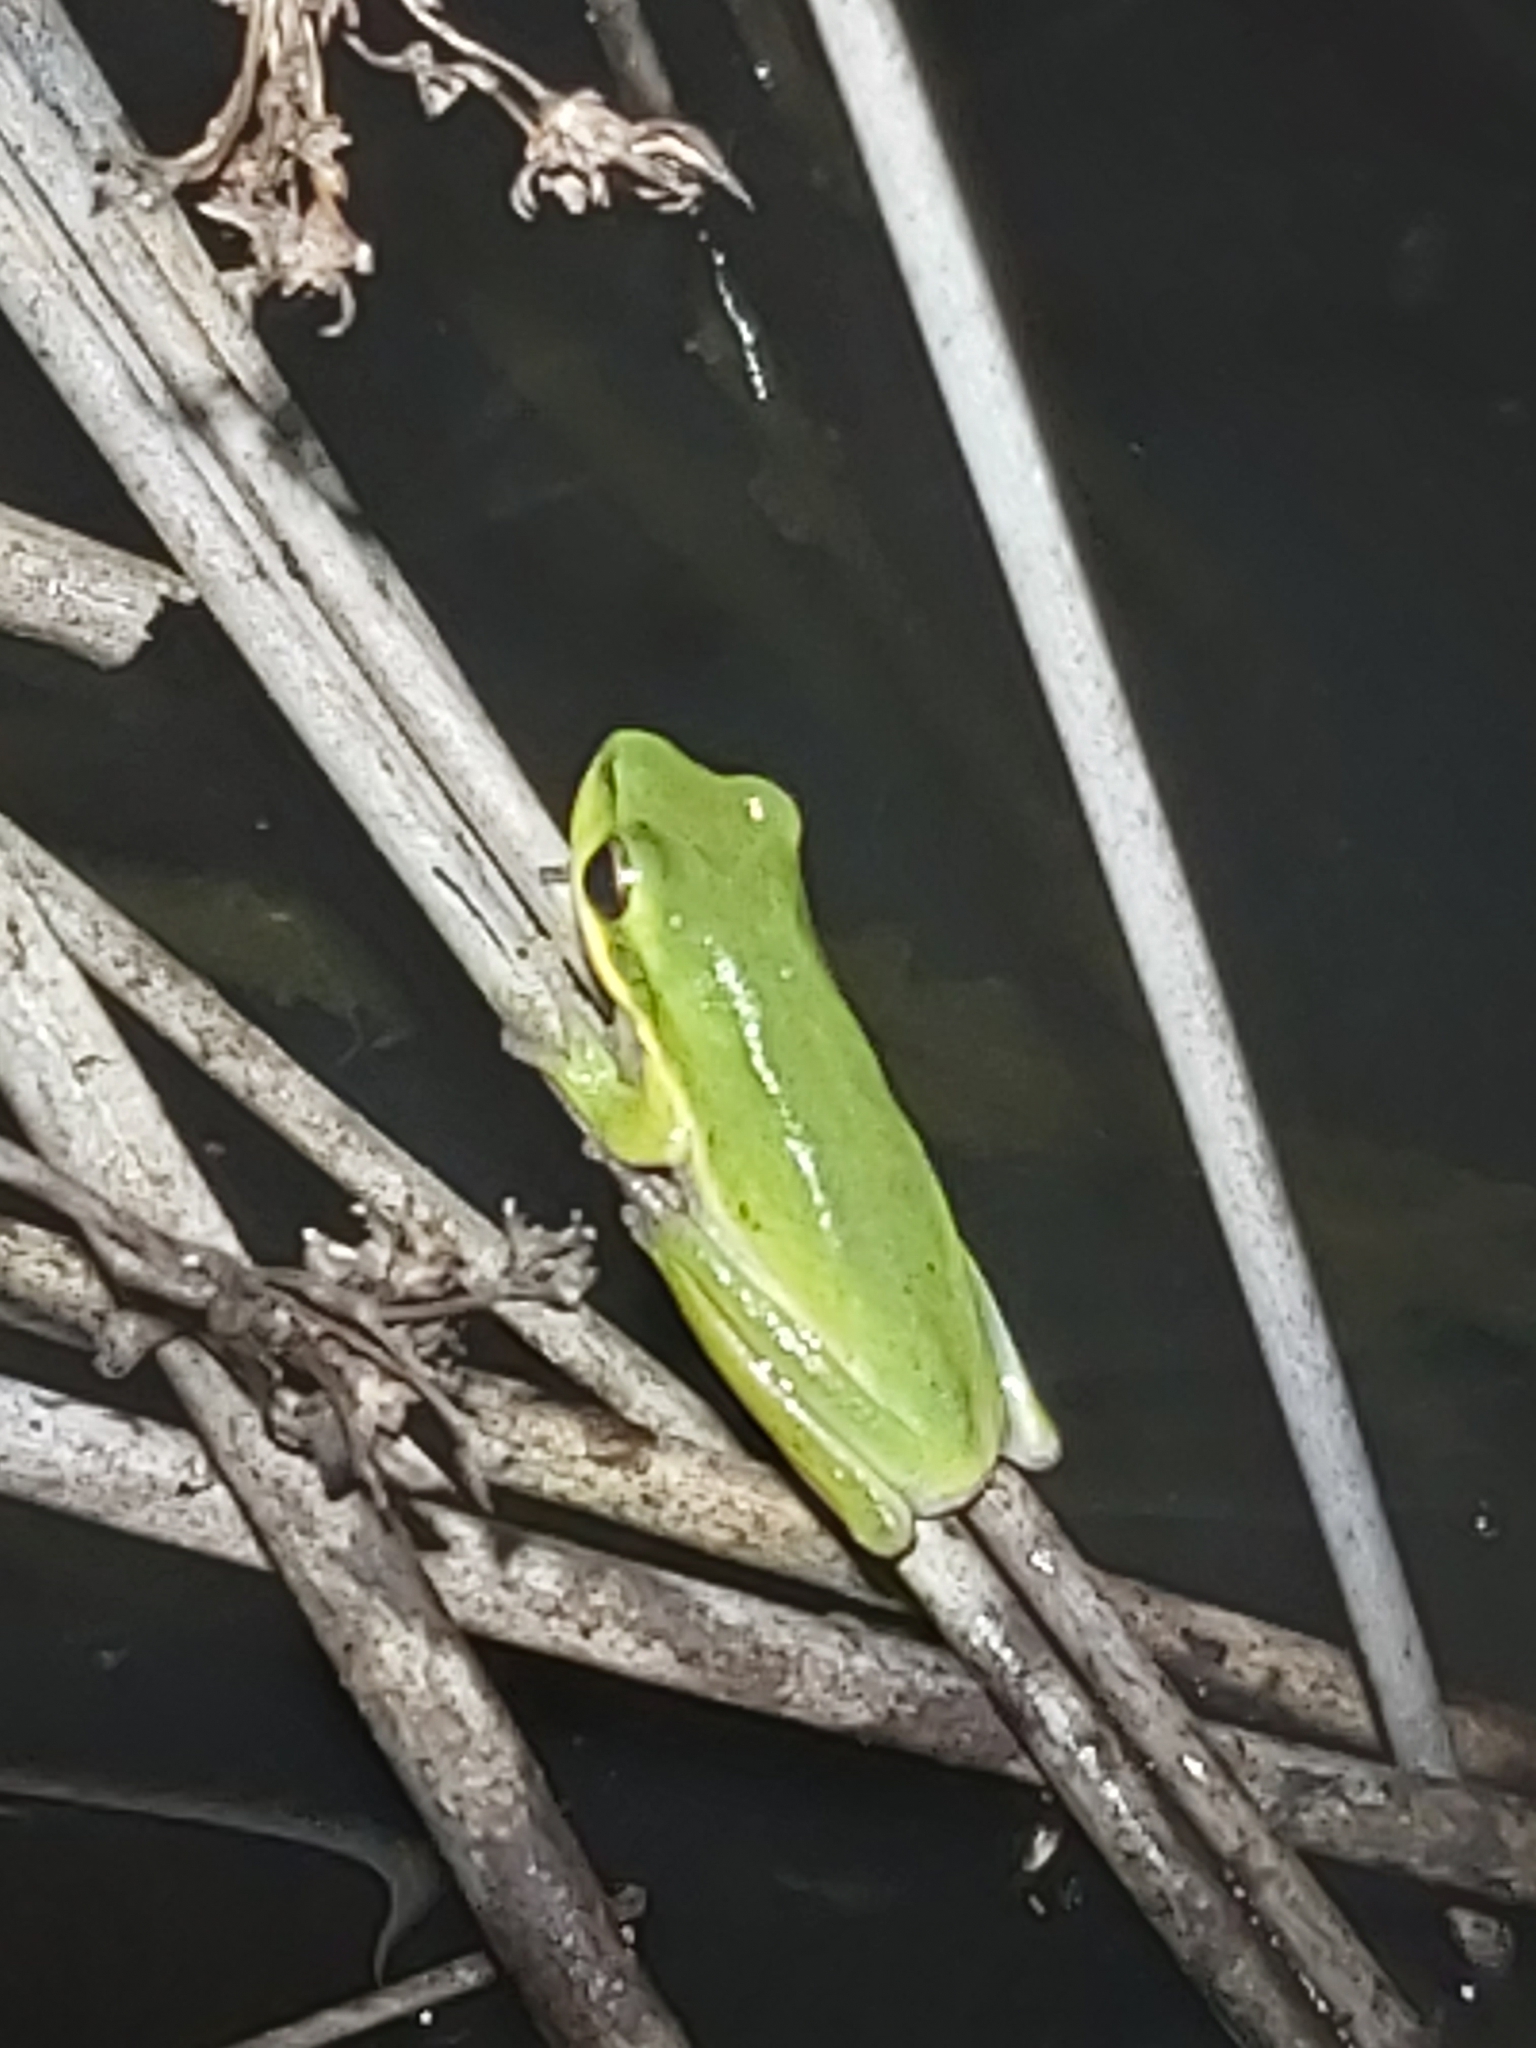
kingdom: Animalia
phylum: Chordata
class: Amphibia
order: Anura
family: Pelodryadidae
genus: Litoria
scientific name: Litoria fallax
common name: Eastern dwarf treefrog
